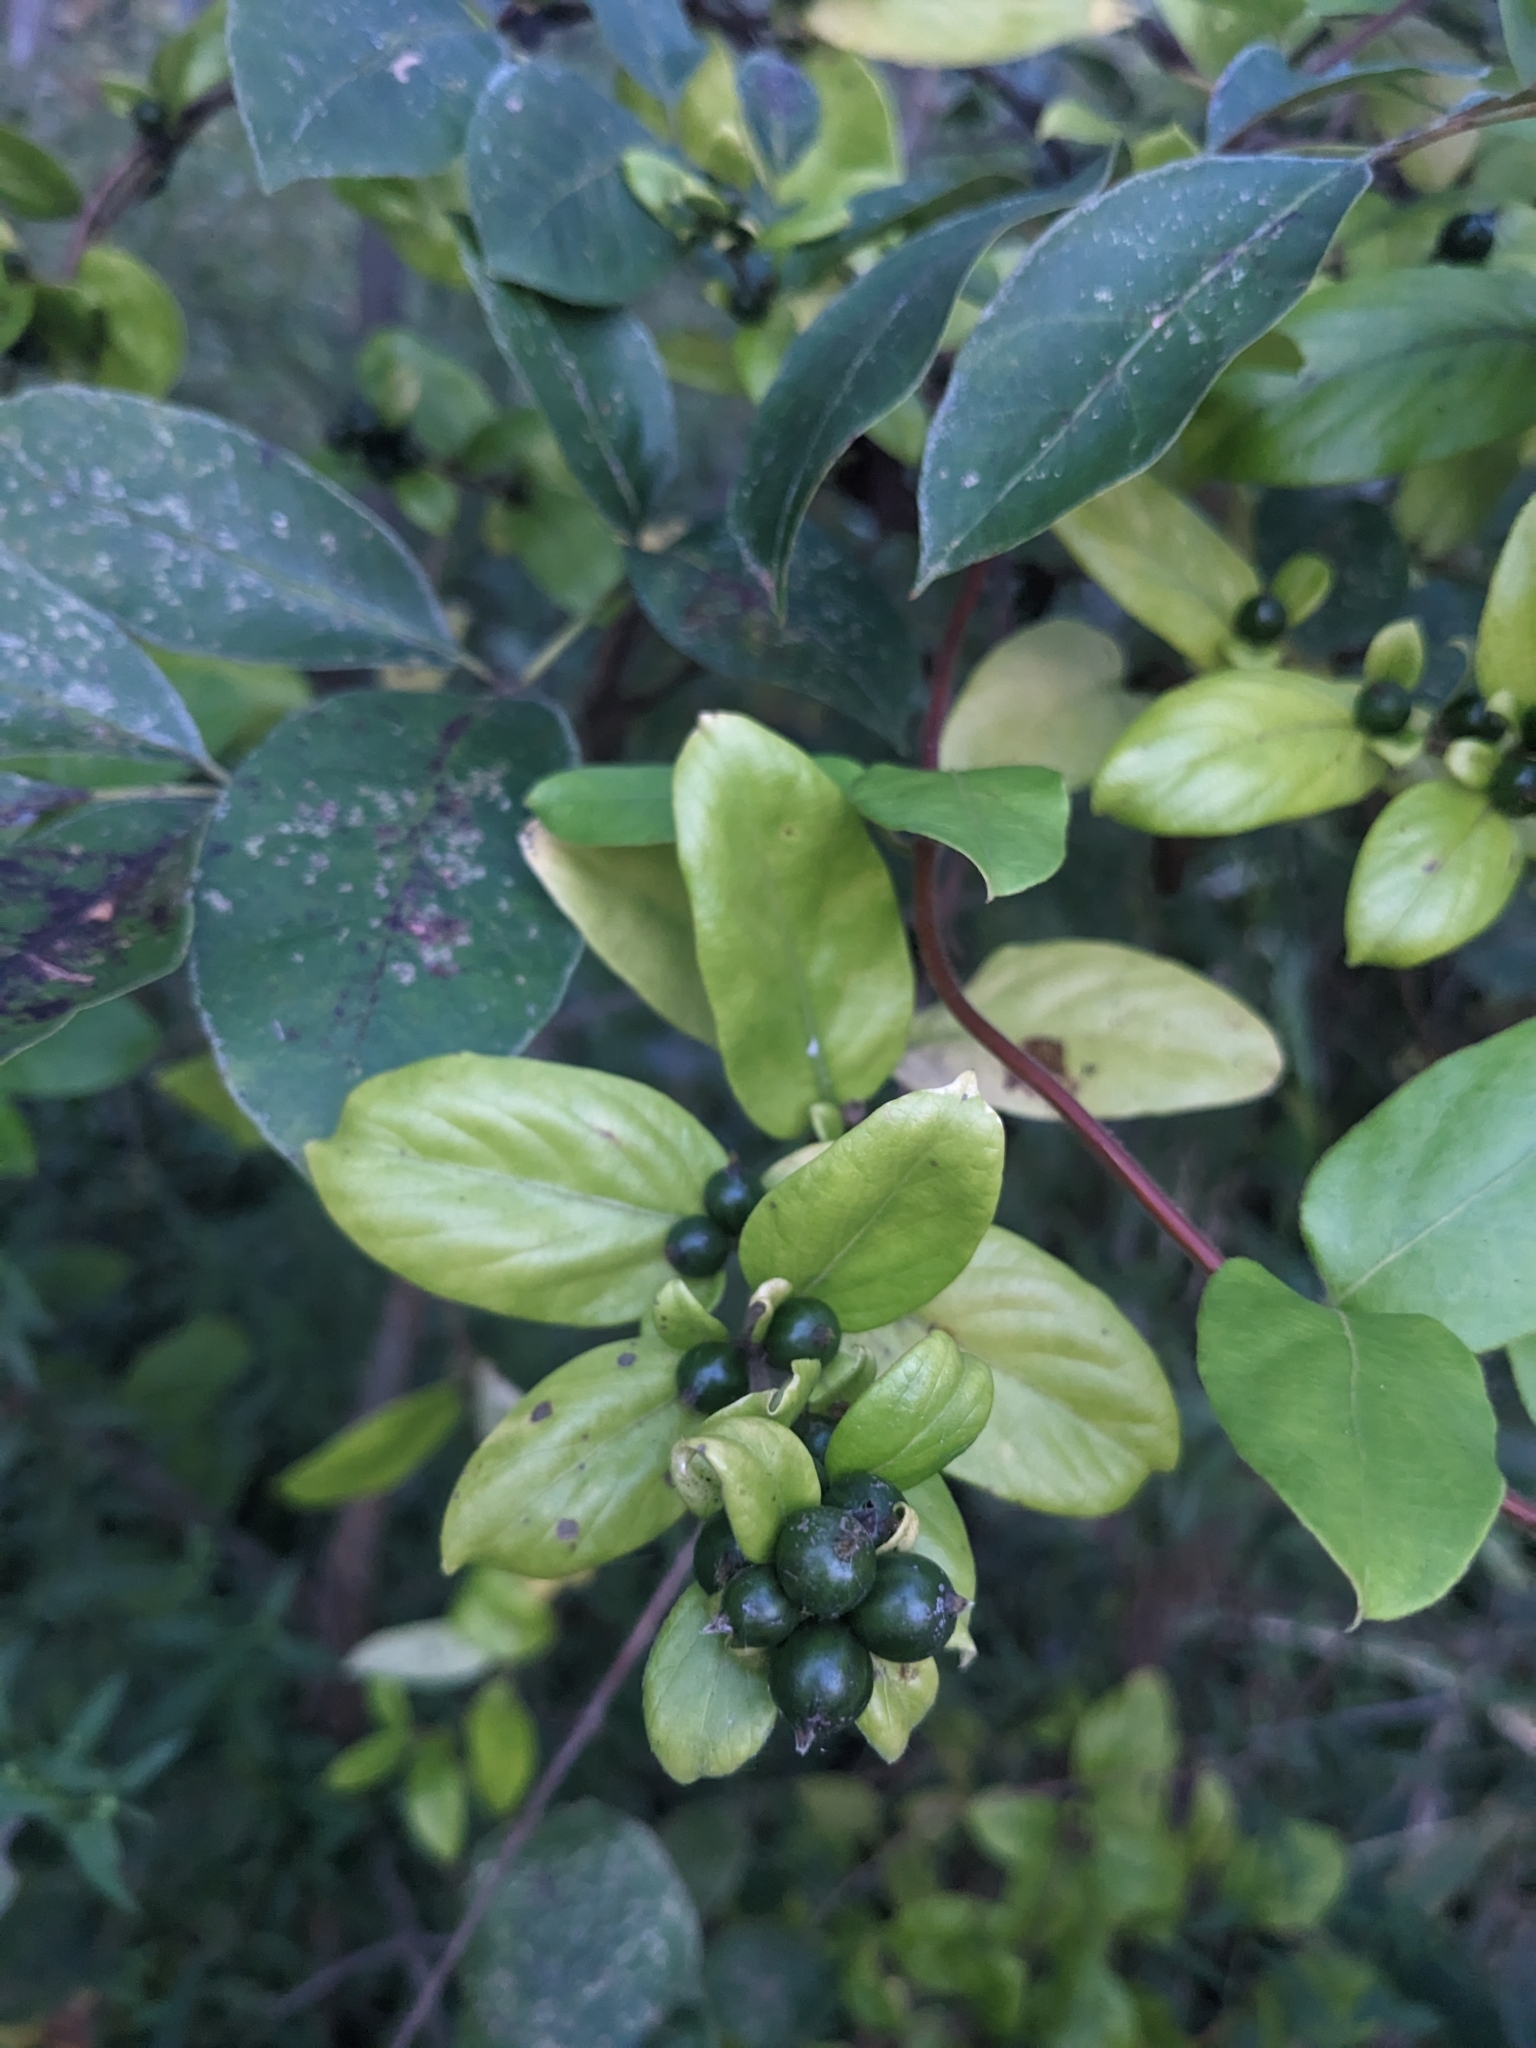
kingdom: Plantae
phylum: Tracheophyta
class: Magnoliopsida
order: Dipsacales
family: Caprifoliaceae
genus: Lonicera
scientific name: Lonicera japonica
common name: Japanese honeysuckle
